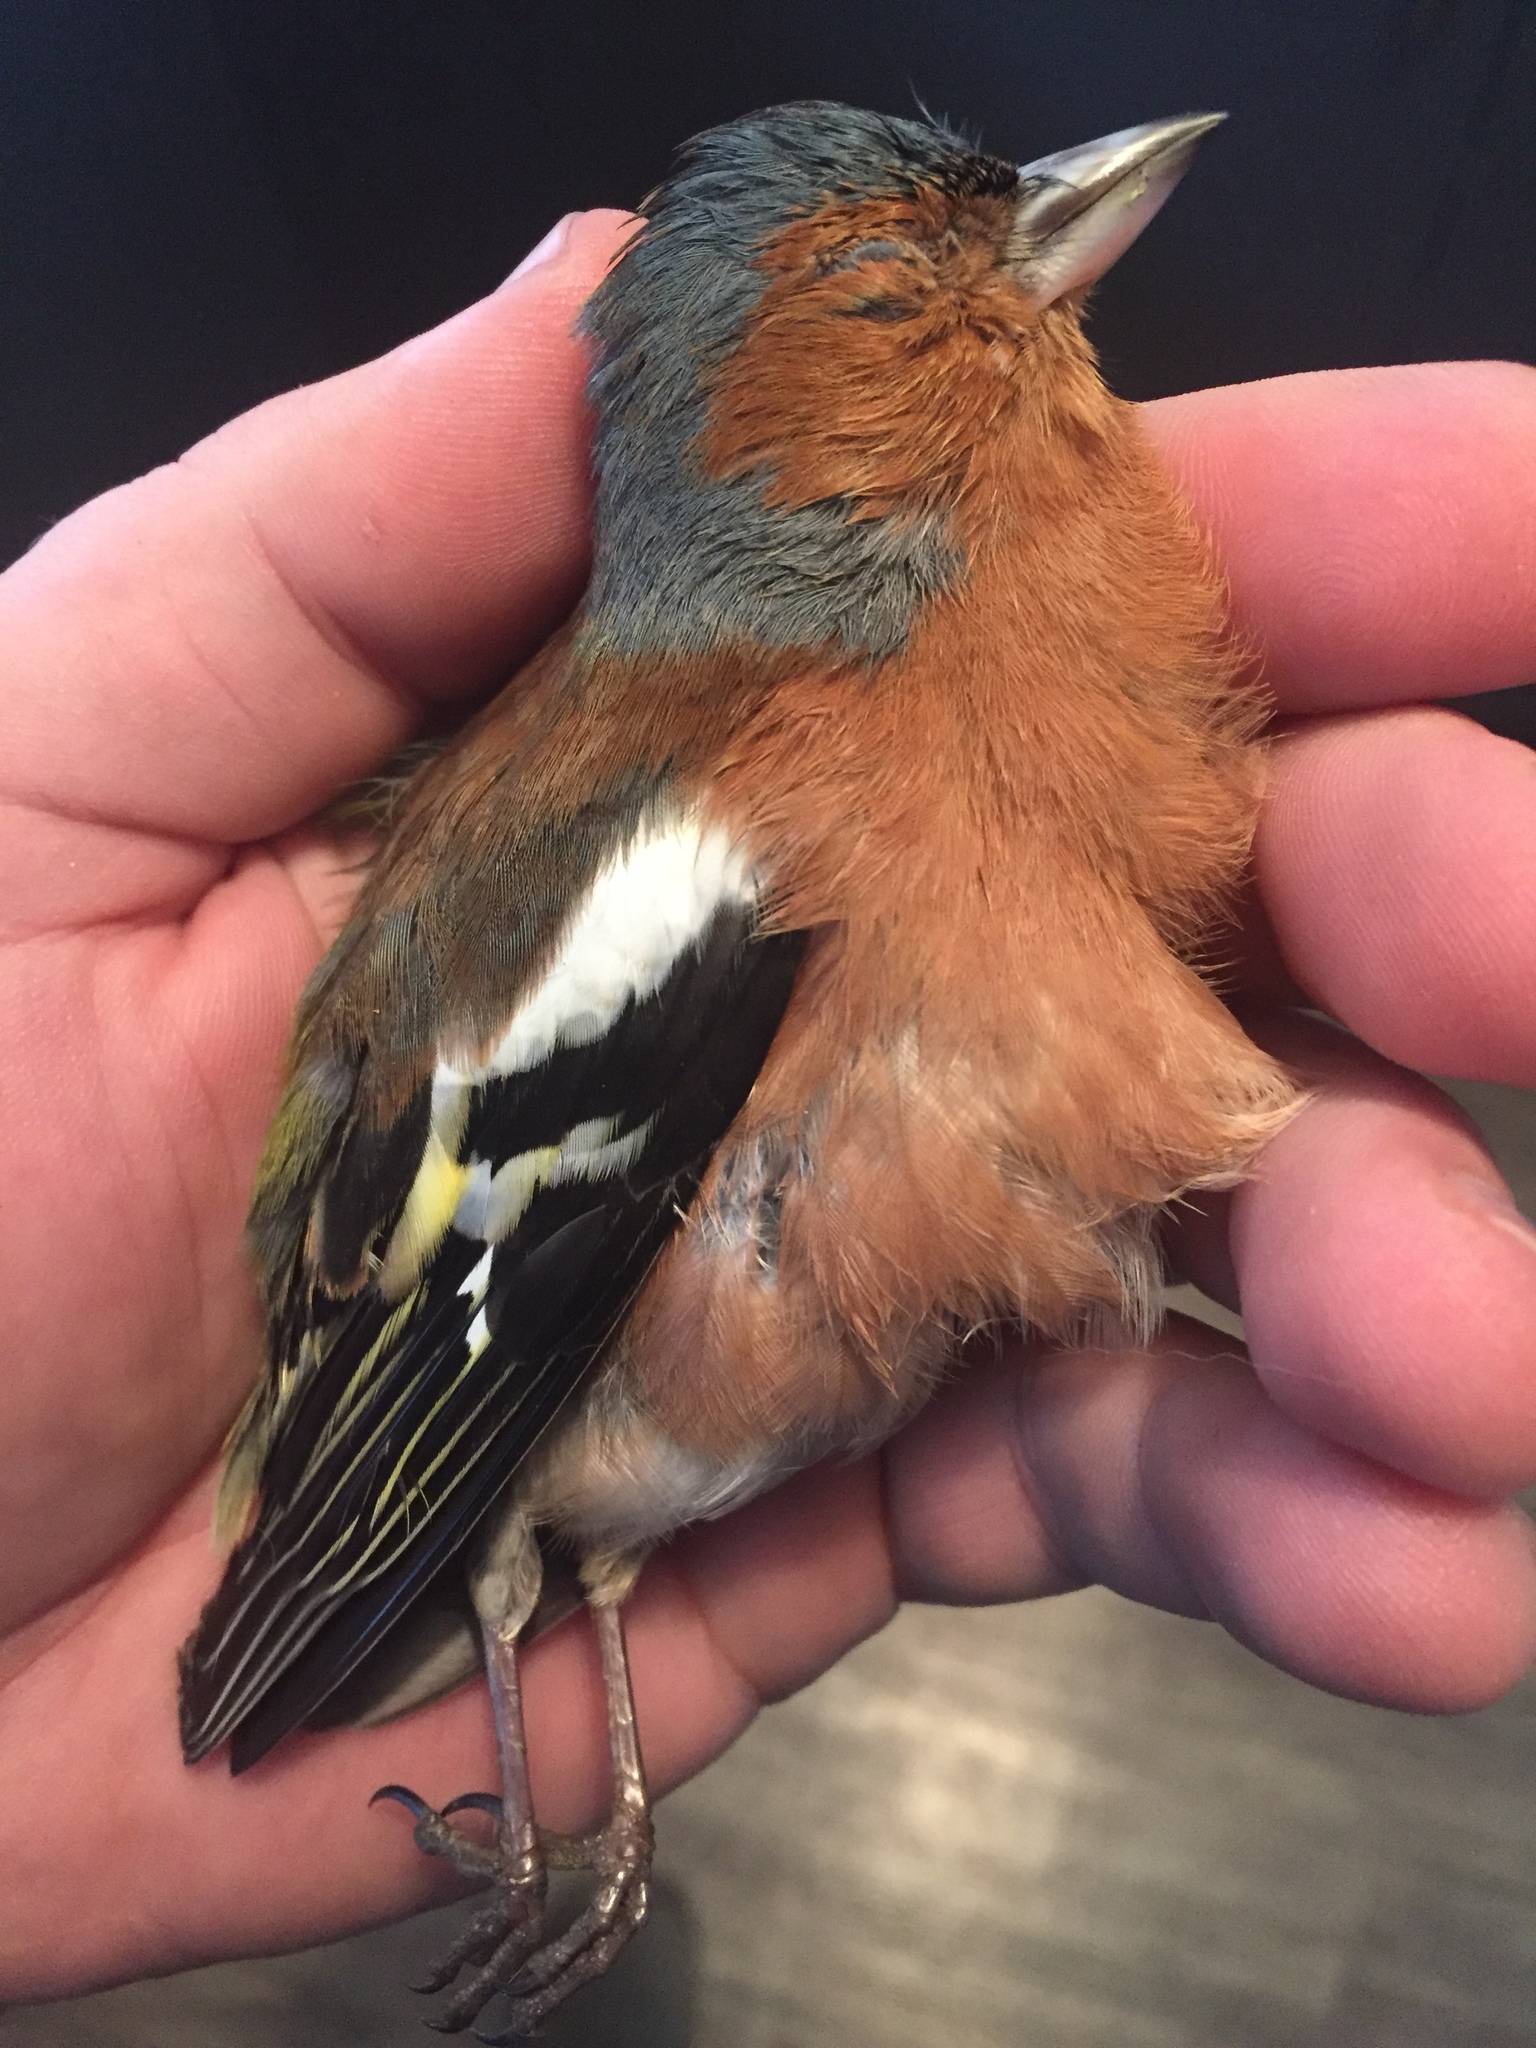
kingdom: Animalia
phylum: Chordata
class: Aves
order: Passeriformes
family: Fringillidae
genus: Fringilla
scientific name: Fringilla coelebs
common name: Common chaffinch
